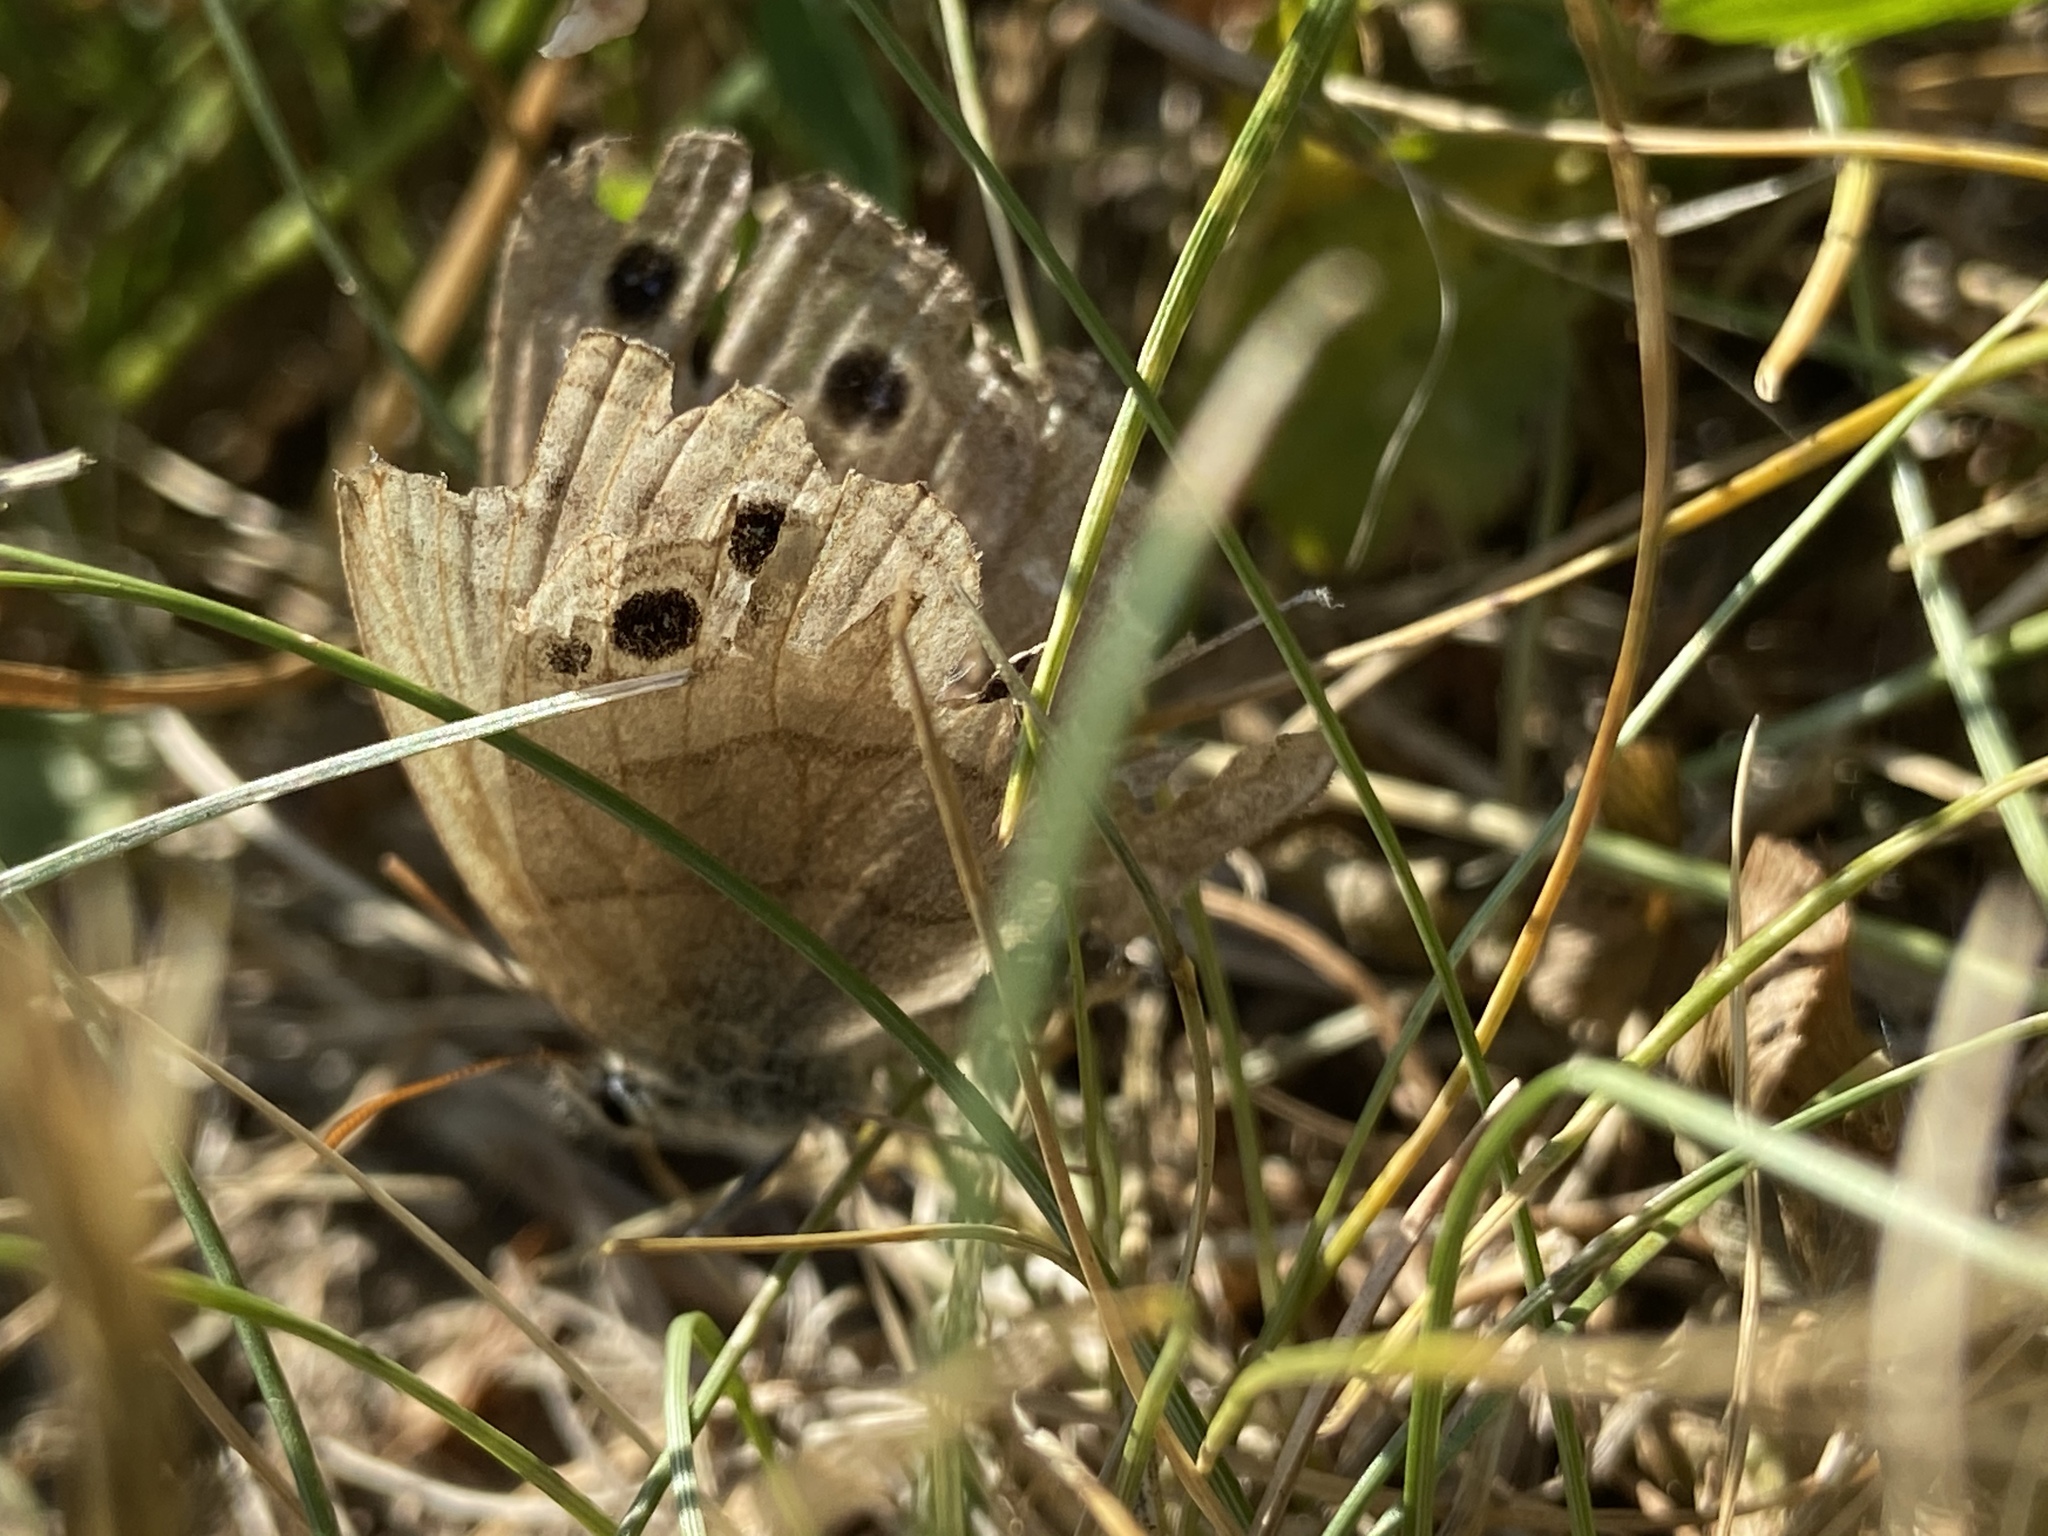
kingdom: Animalia
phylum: Arthropoda
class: Insecta
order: Lepidoptera
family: Nymphalidae
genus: Euptychia
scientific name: Euptychia cymela
